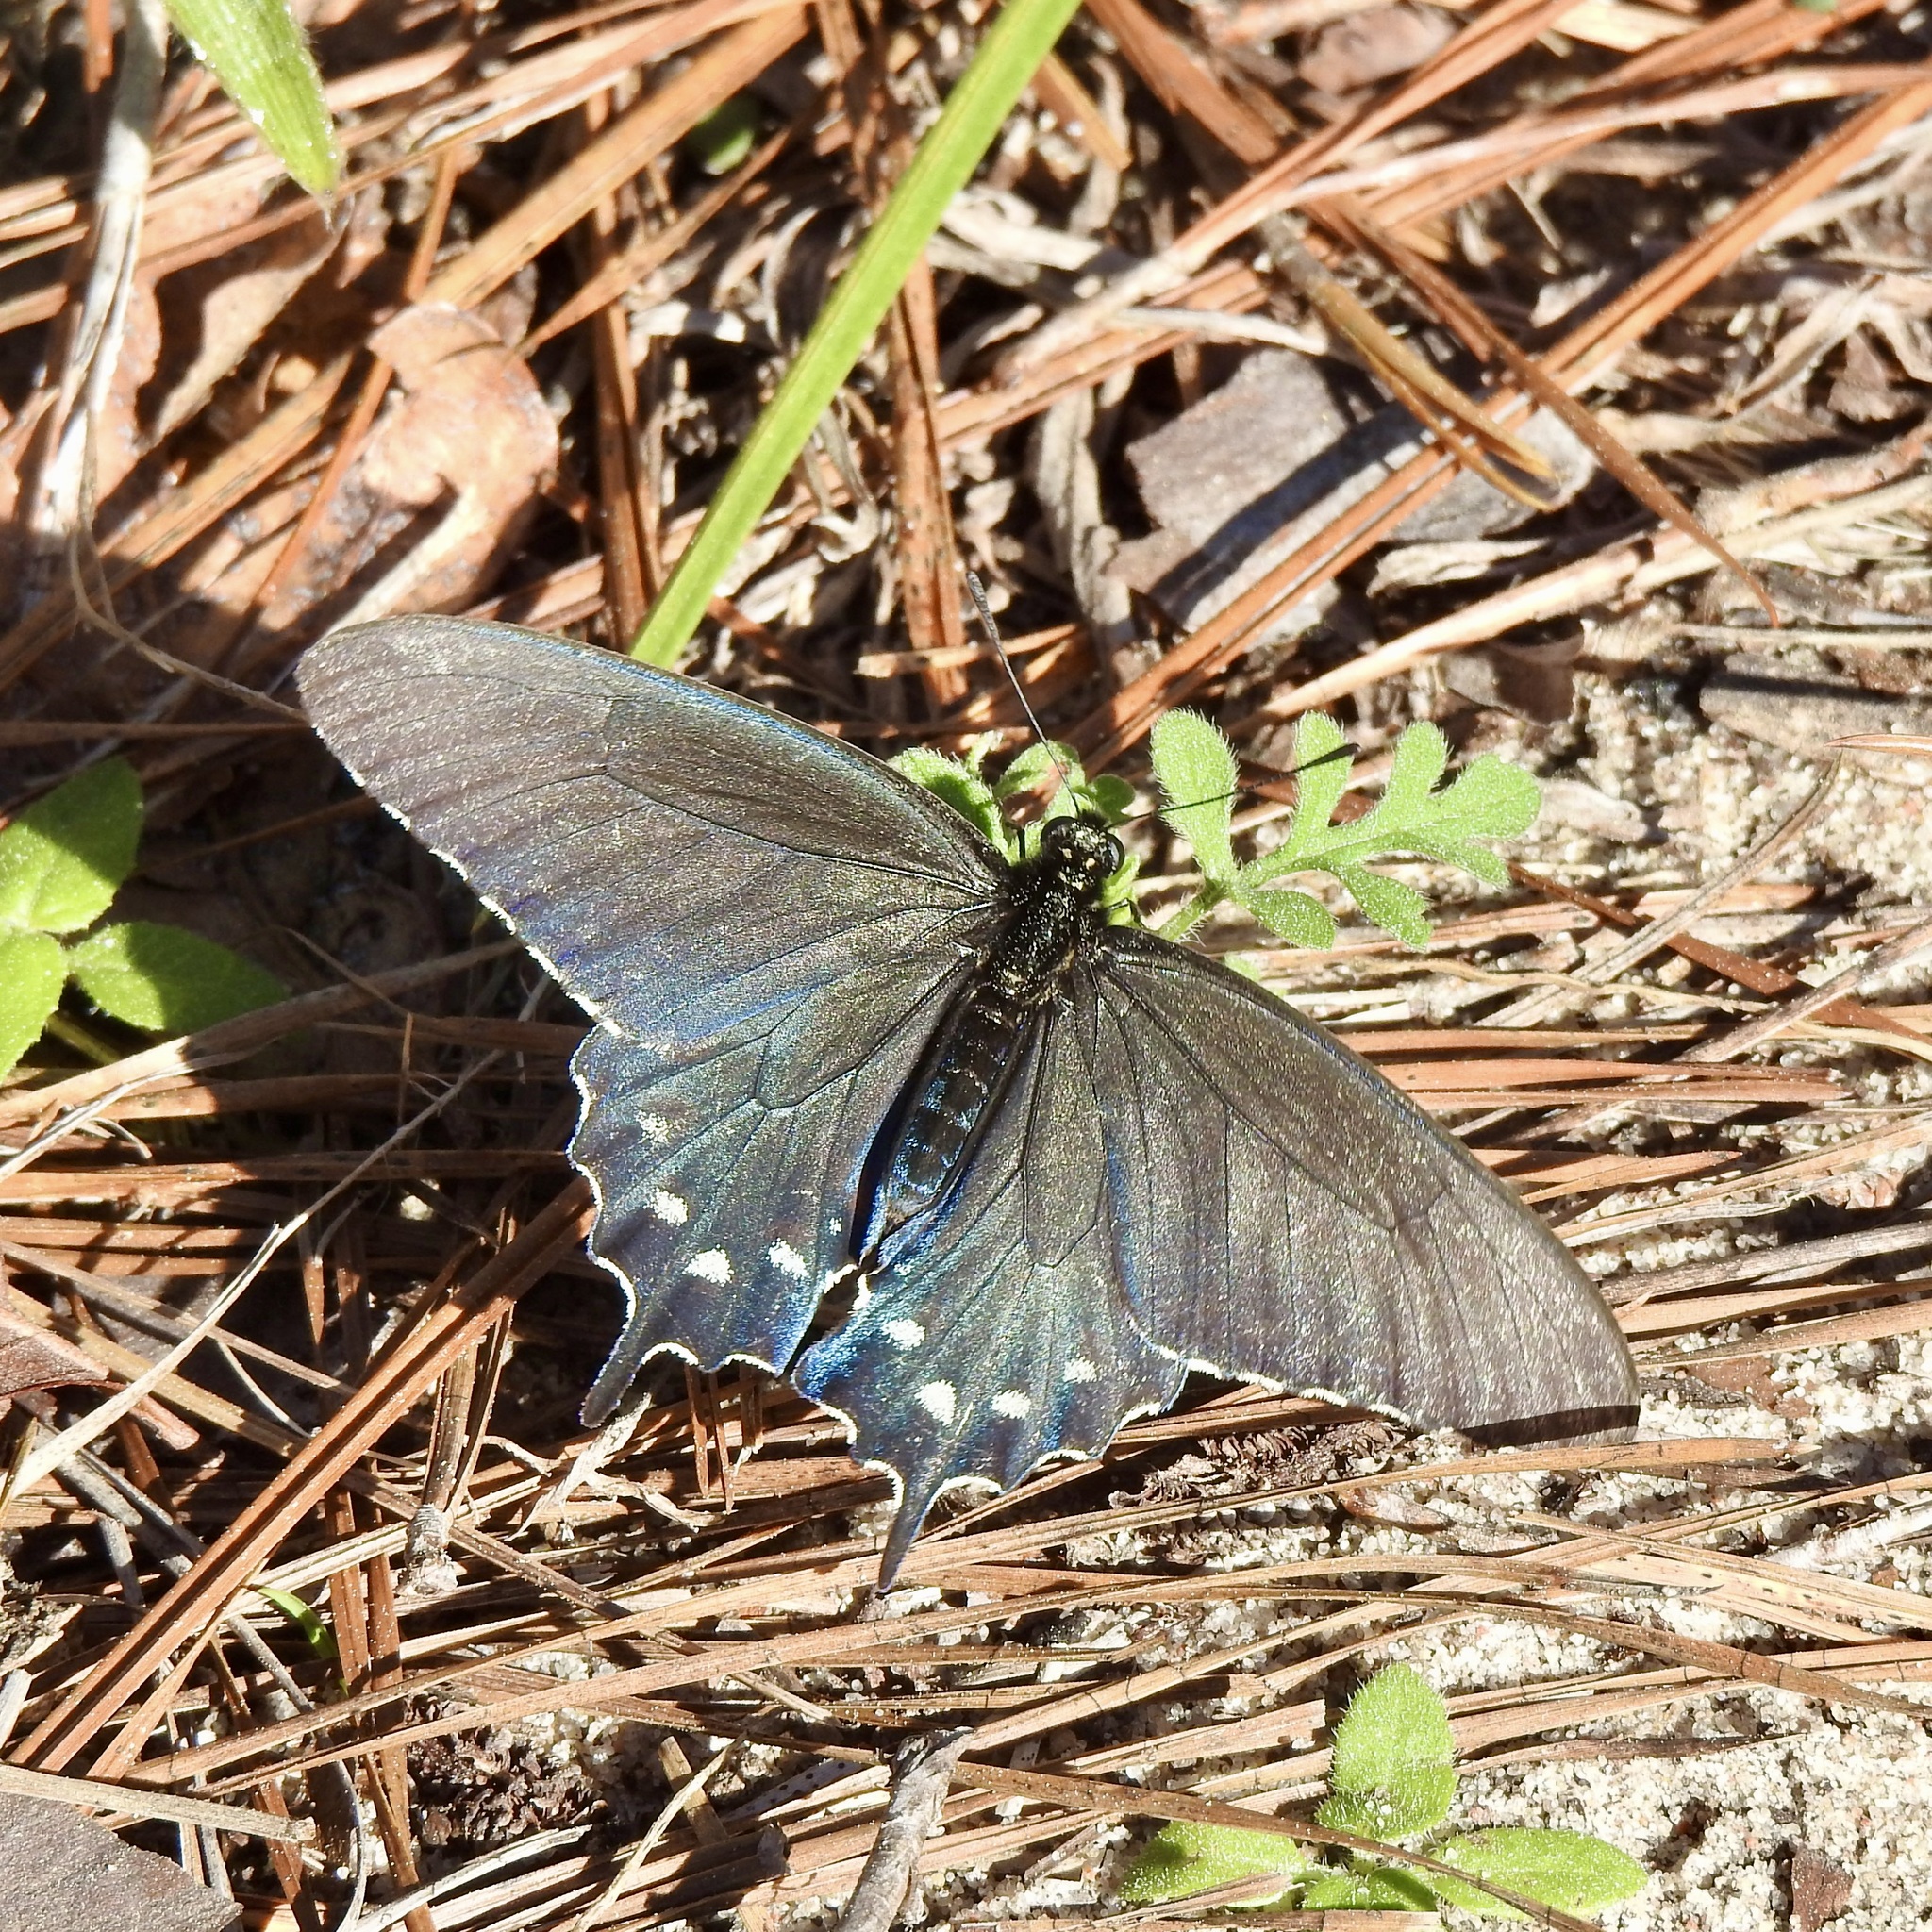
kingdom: Animalia
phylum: Arthropoda
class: Insecta
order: Lepidoptera
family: Papilionidae
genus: Battus
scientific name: Battus philenor
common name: Pipevine swallowtail
